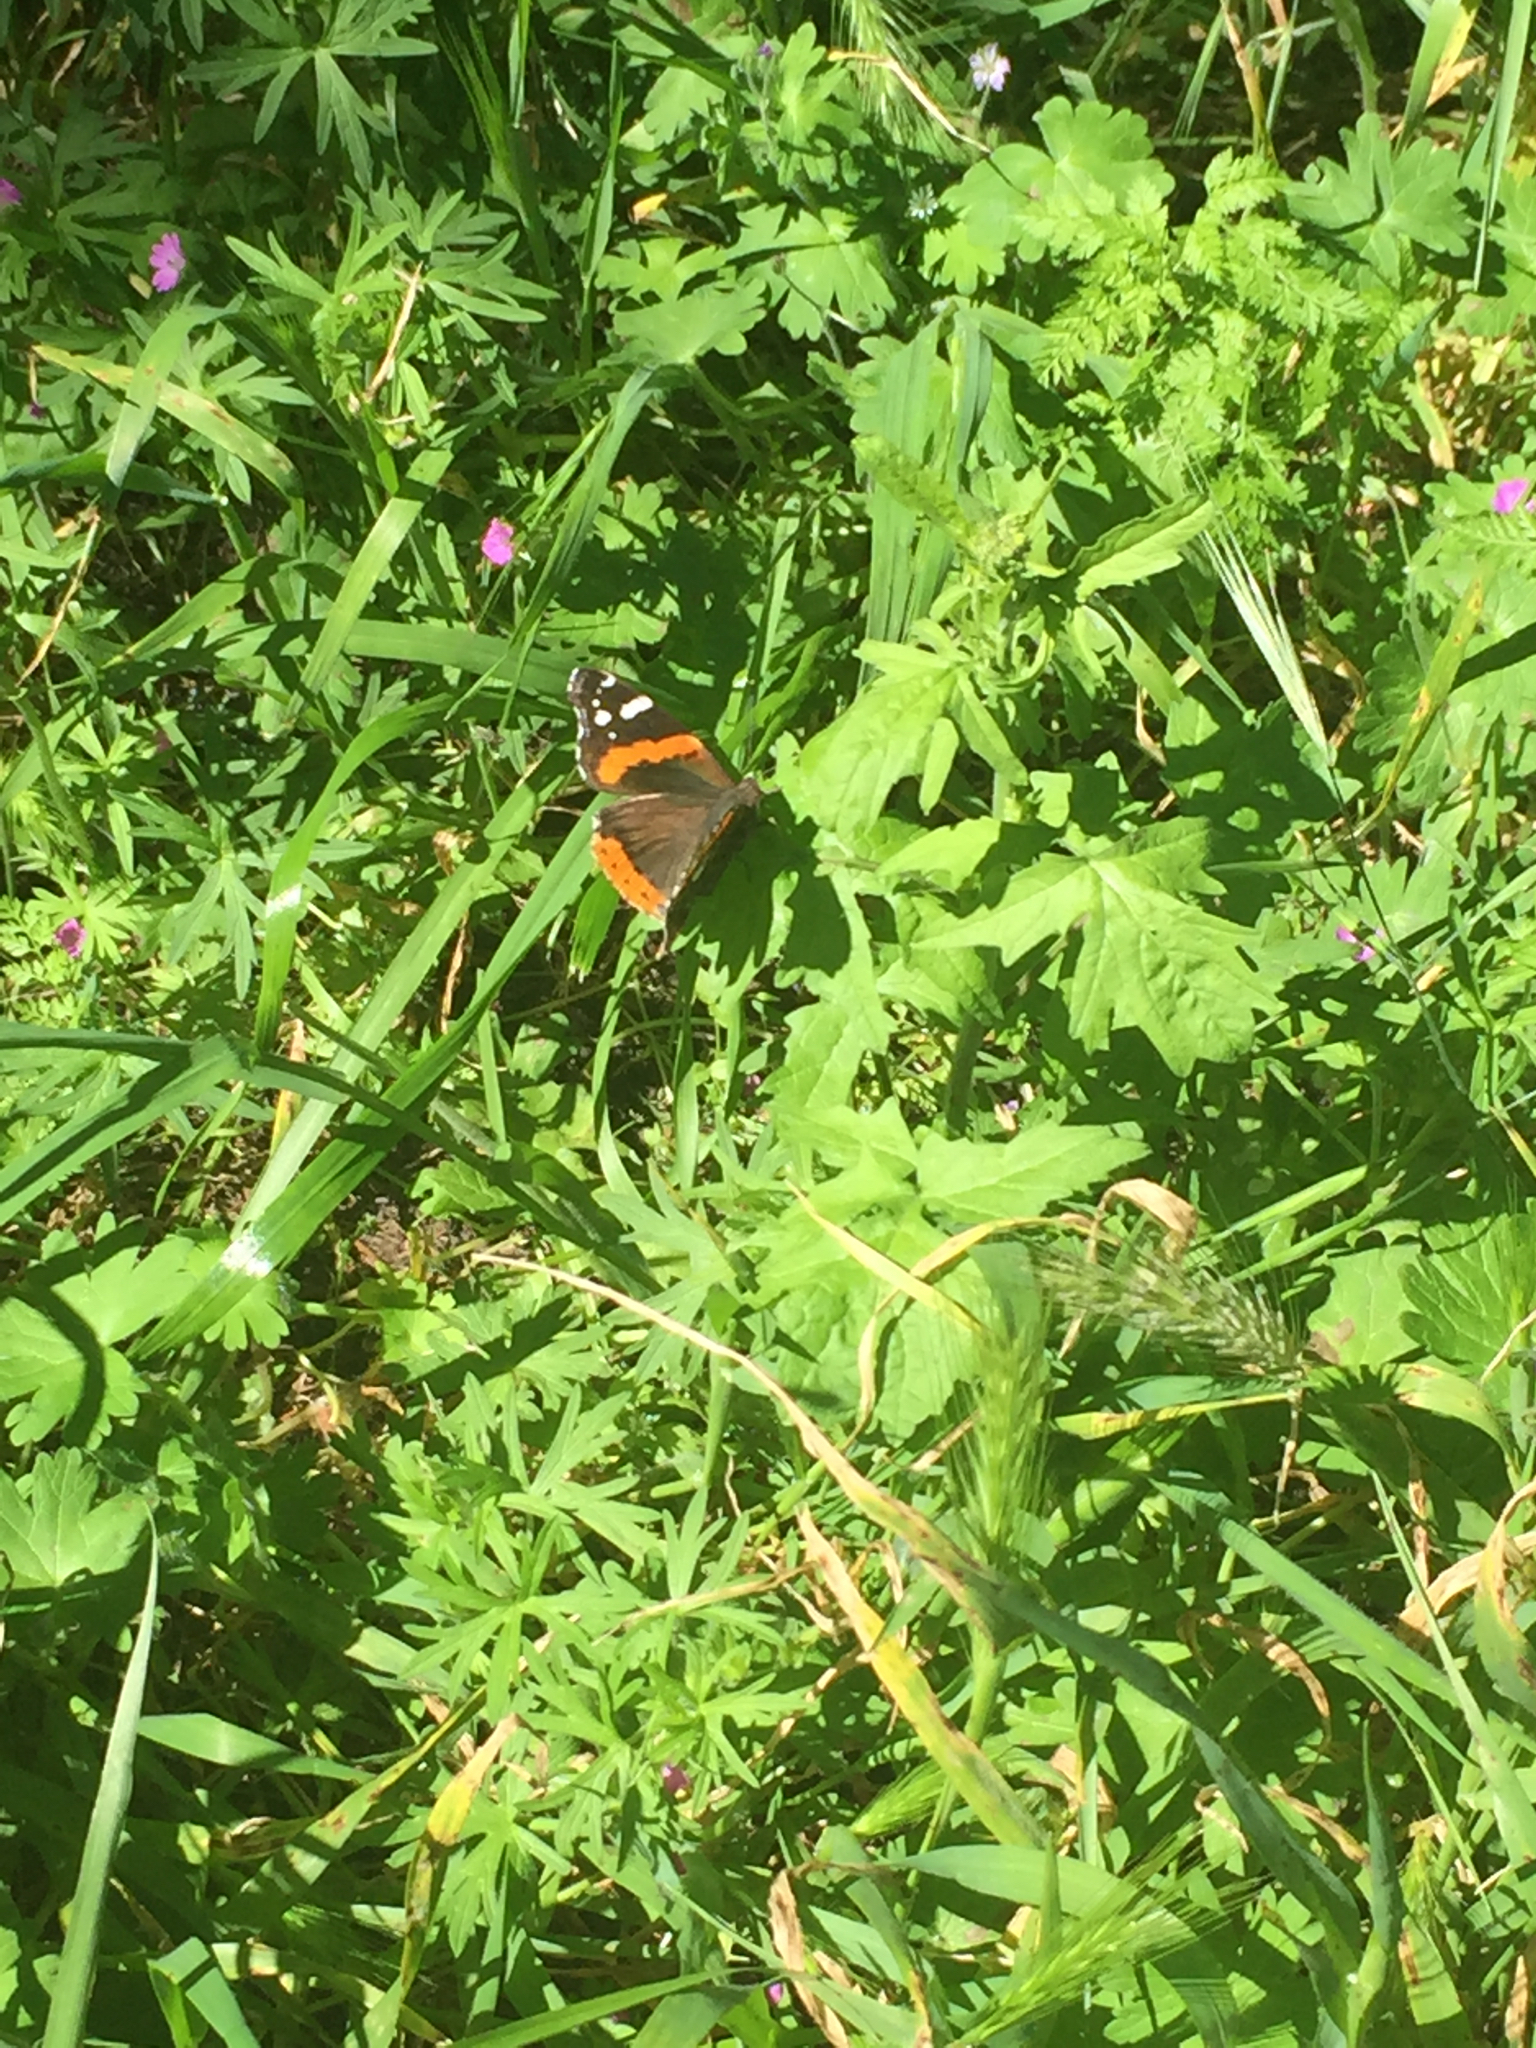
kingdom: Animalia
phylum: Arthropoda
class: Insecta
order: Lepidoptera
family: Nymphalidae
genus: Vanessa
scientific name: Vanessa atalanta
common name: Red admiral
